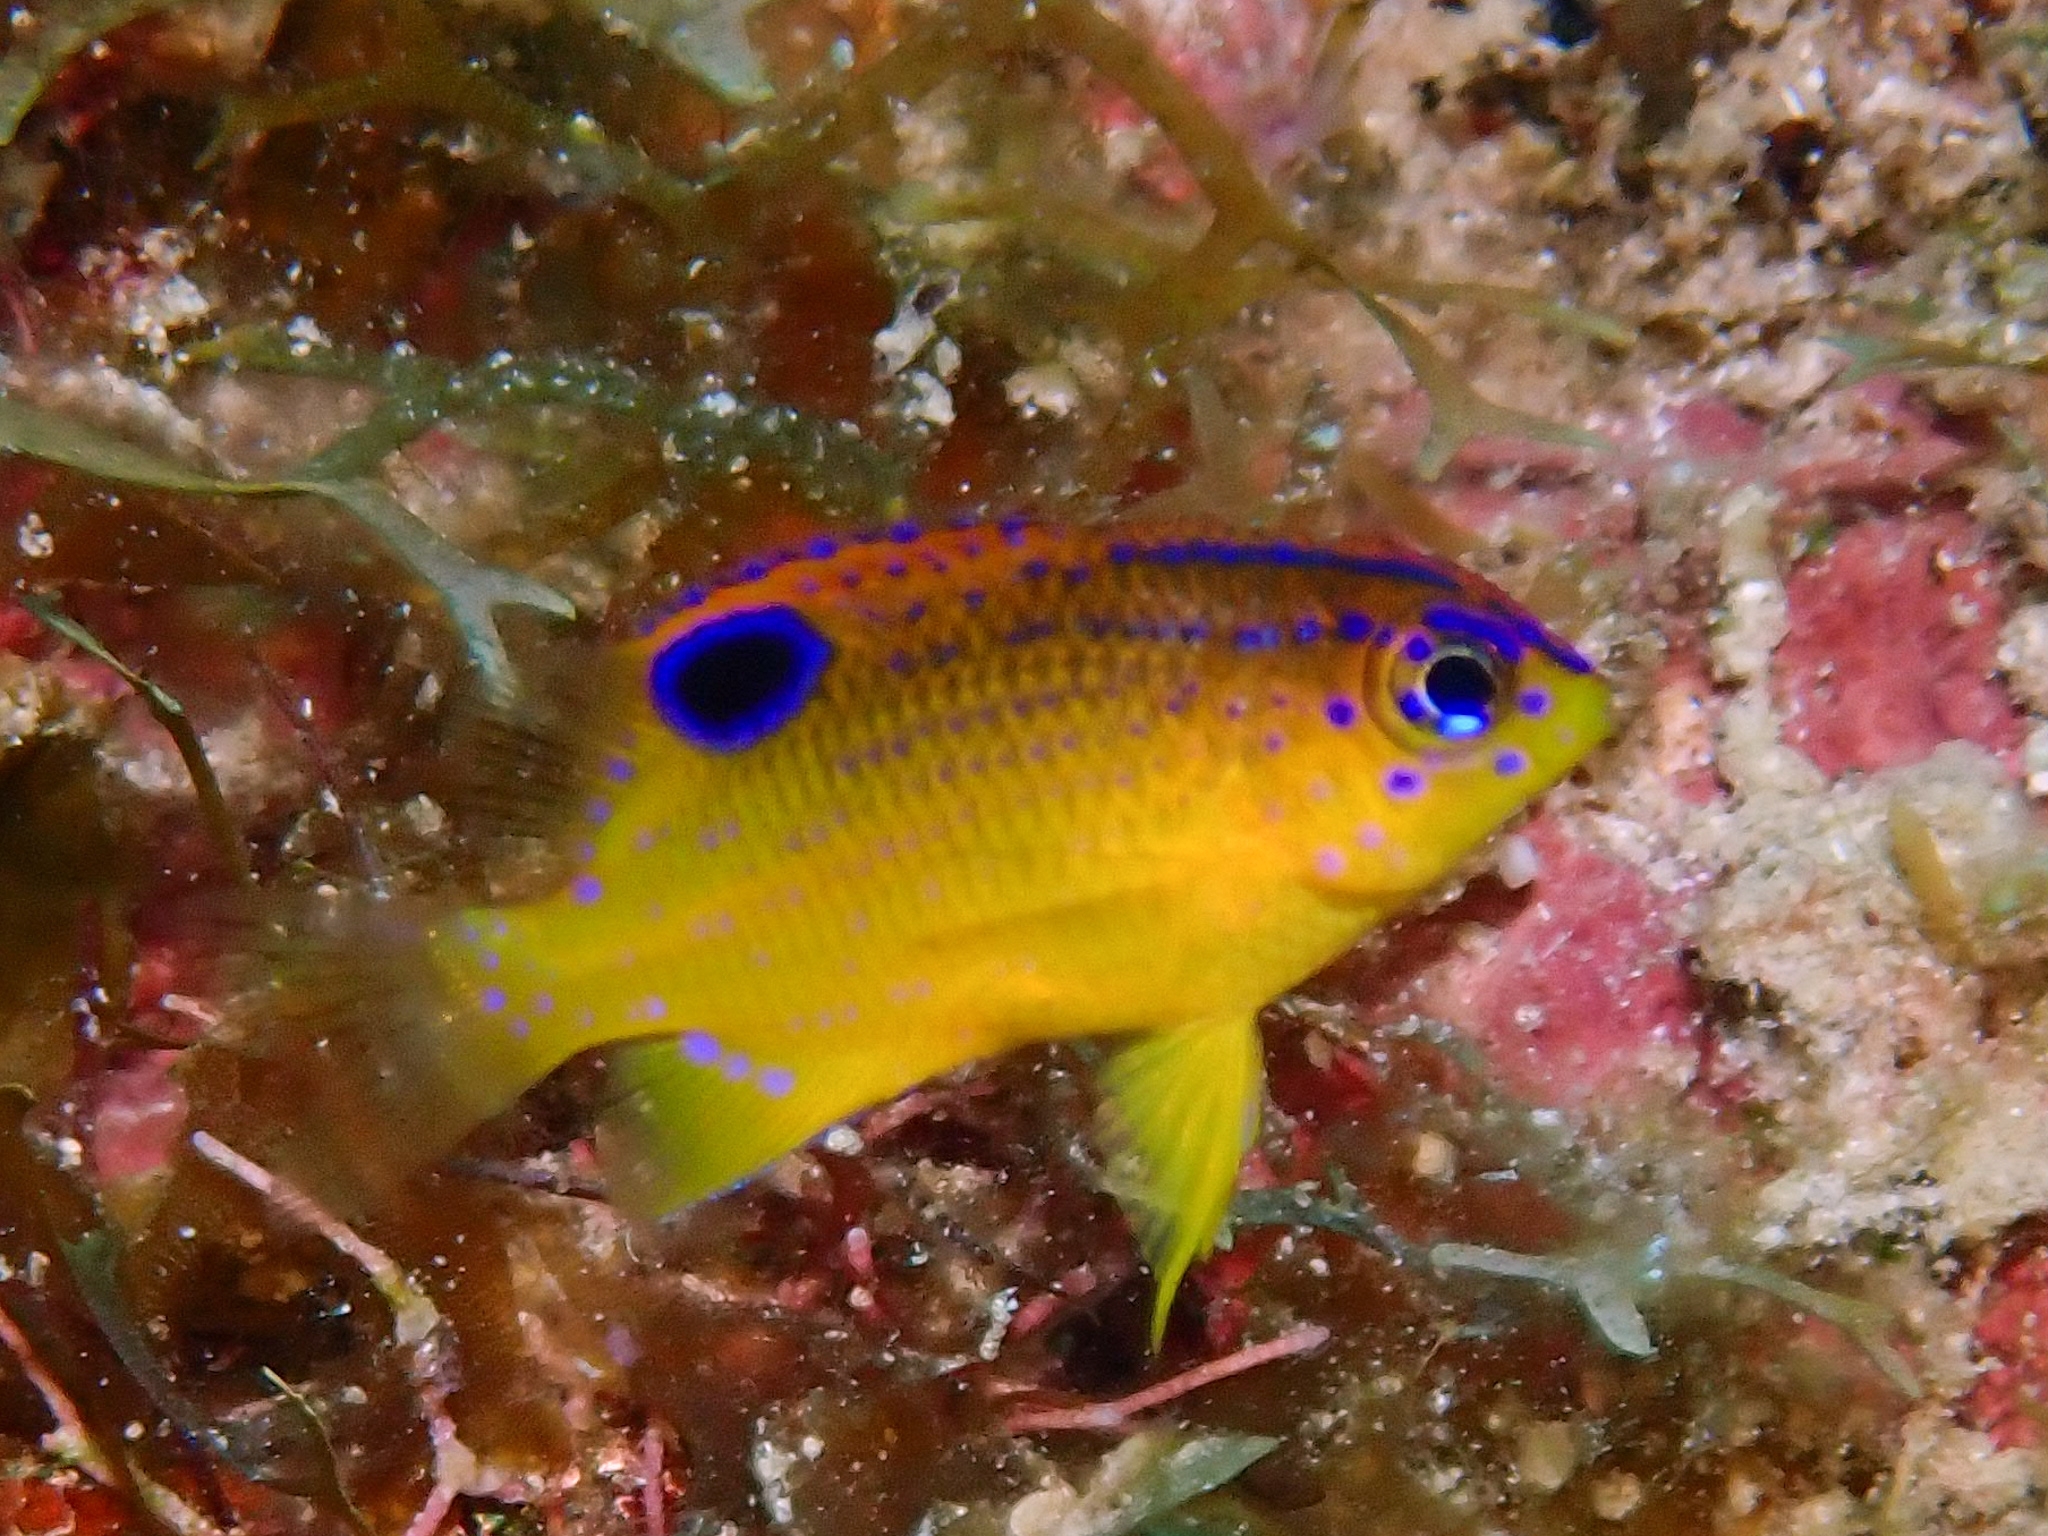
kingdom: Animalia
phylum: Chordata
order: Perciformes
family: Pomacentridae
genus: Stegastes
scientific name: Stegastes diencaeus
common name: Longfin damselfish
